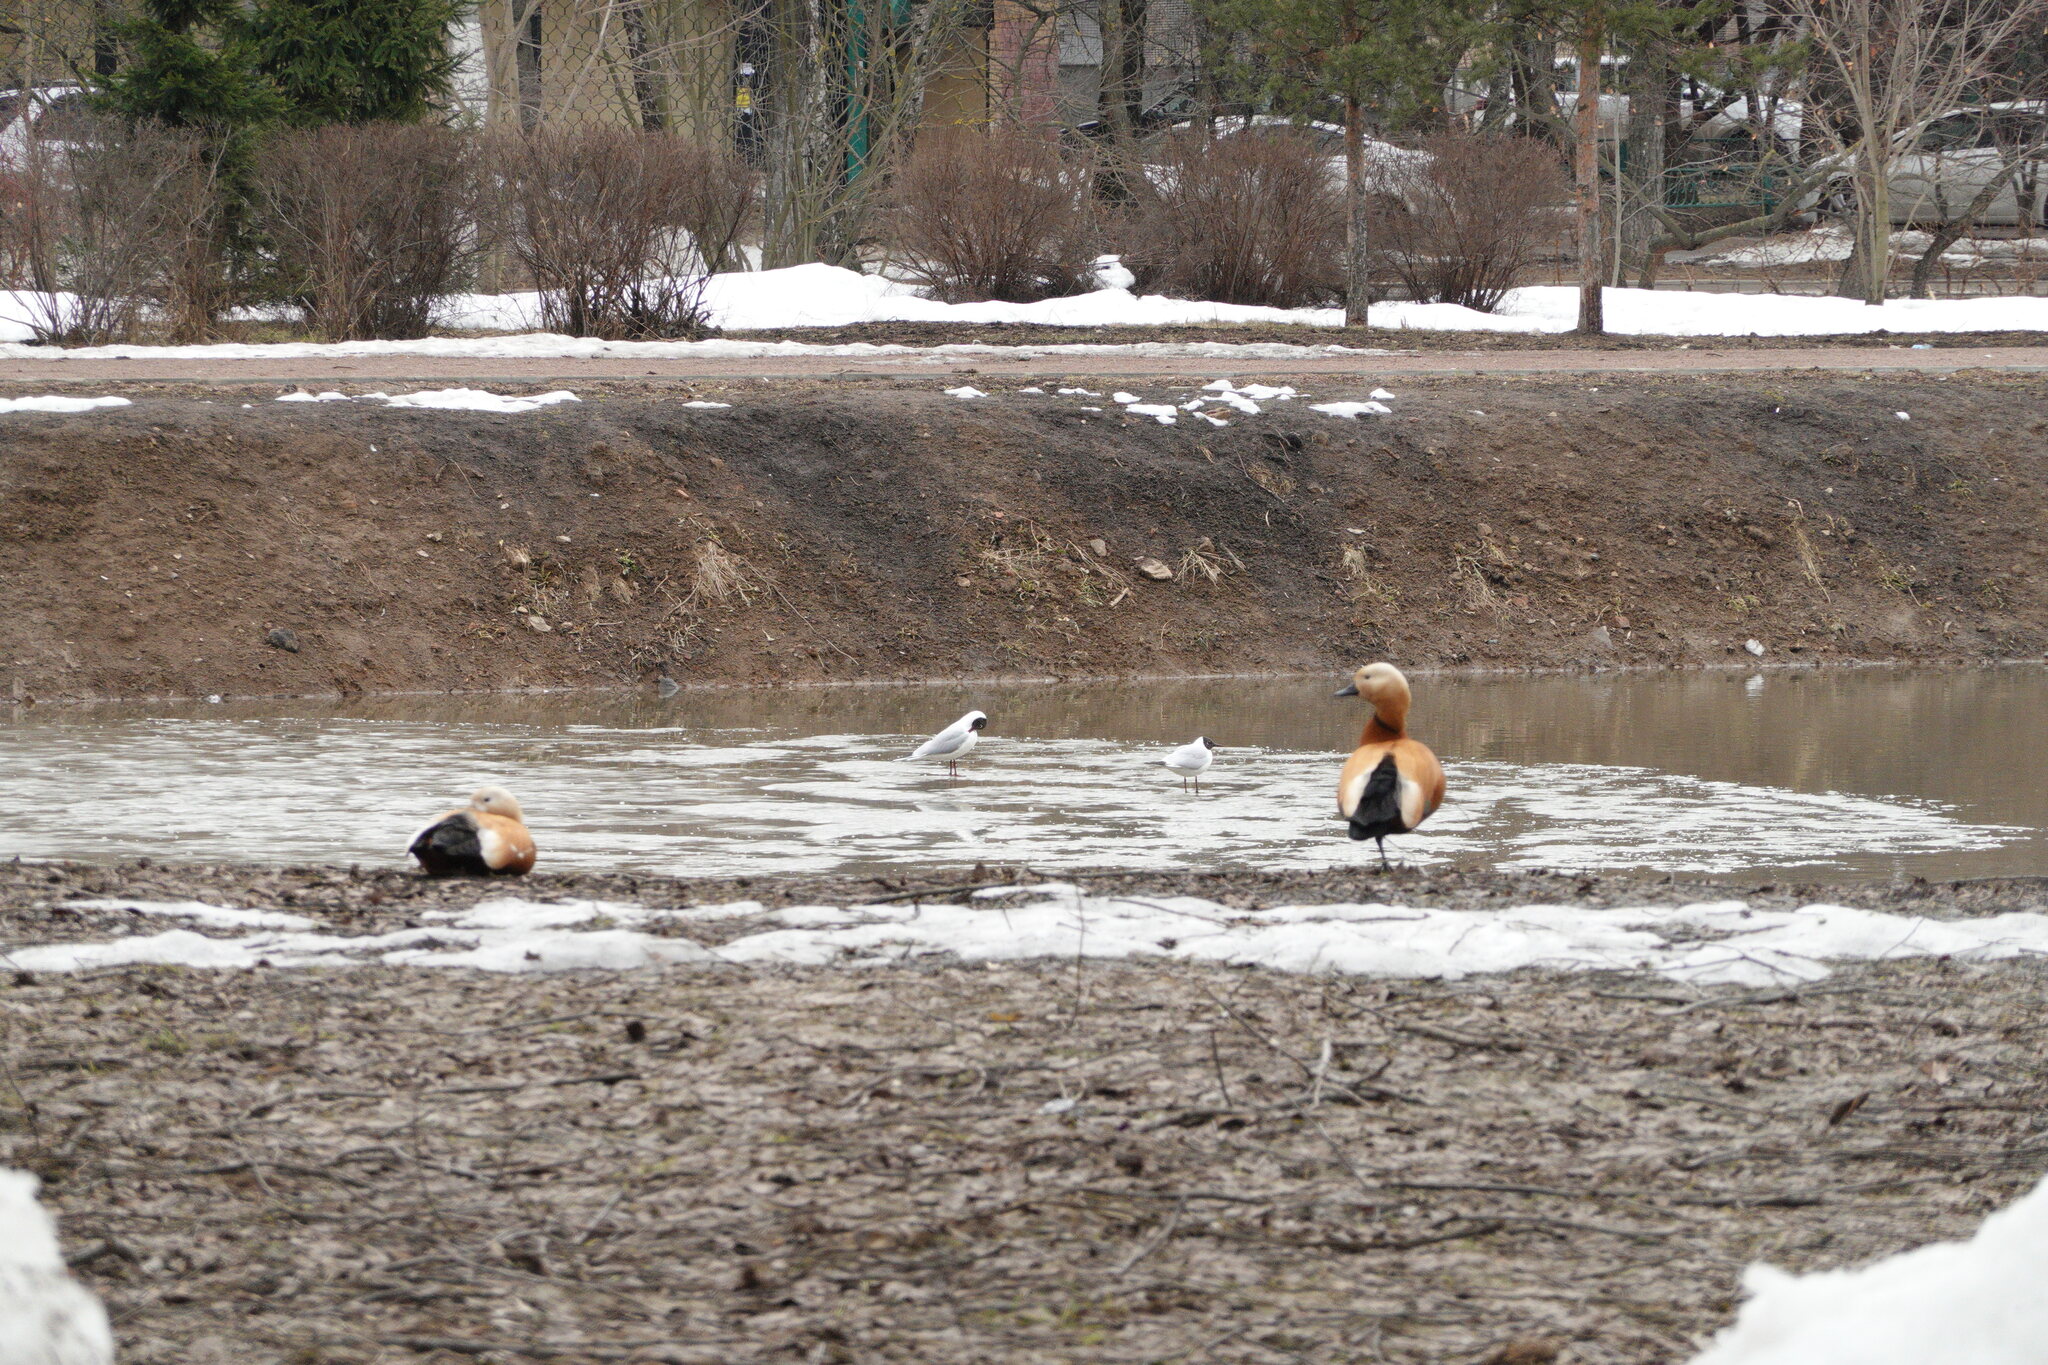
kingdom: Animalia
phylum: Chordata
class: Aves
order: Anseriformes
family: Anatidae
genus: Tadorna
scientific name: Tadorna ferruginea
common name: Ruddy shelduck
